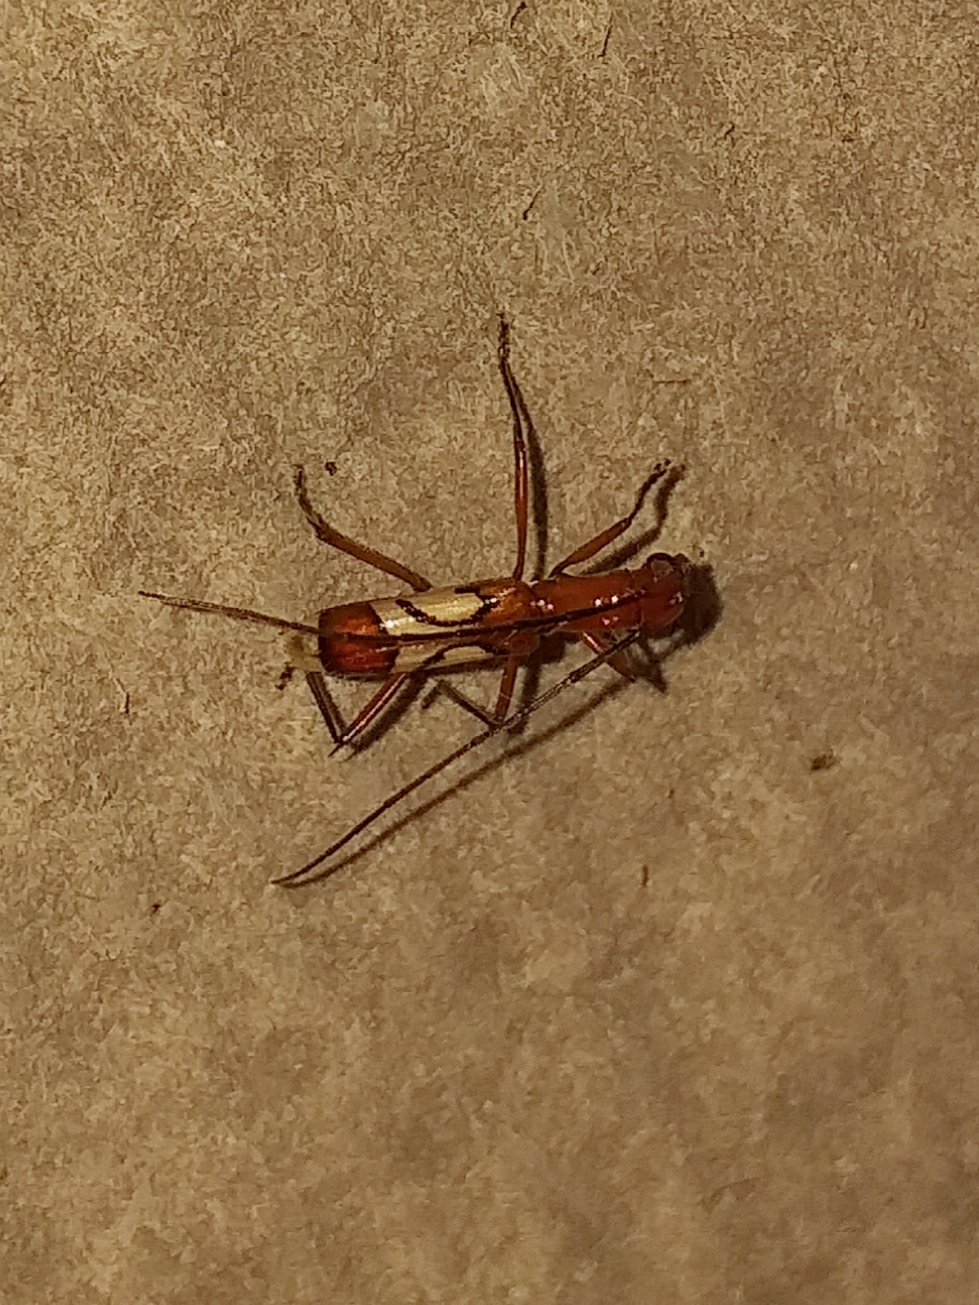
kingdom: Animalia
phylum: Arthropoda
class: Insecta
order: Coleoptera
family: Cerambycidae
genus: Hexoplon
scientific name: Hexoplon venus
